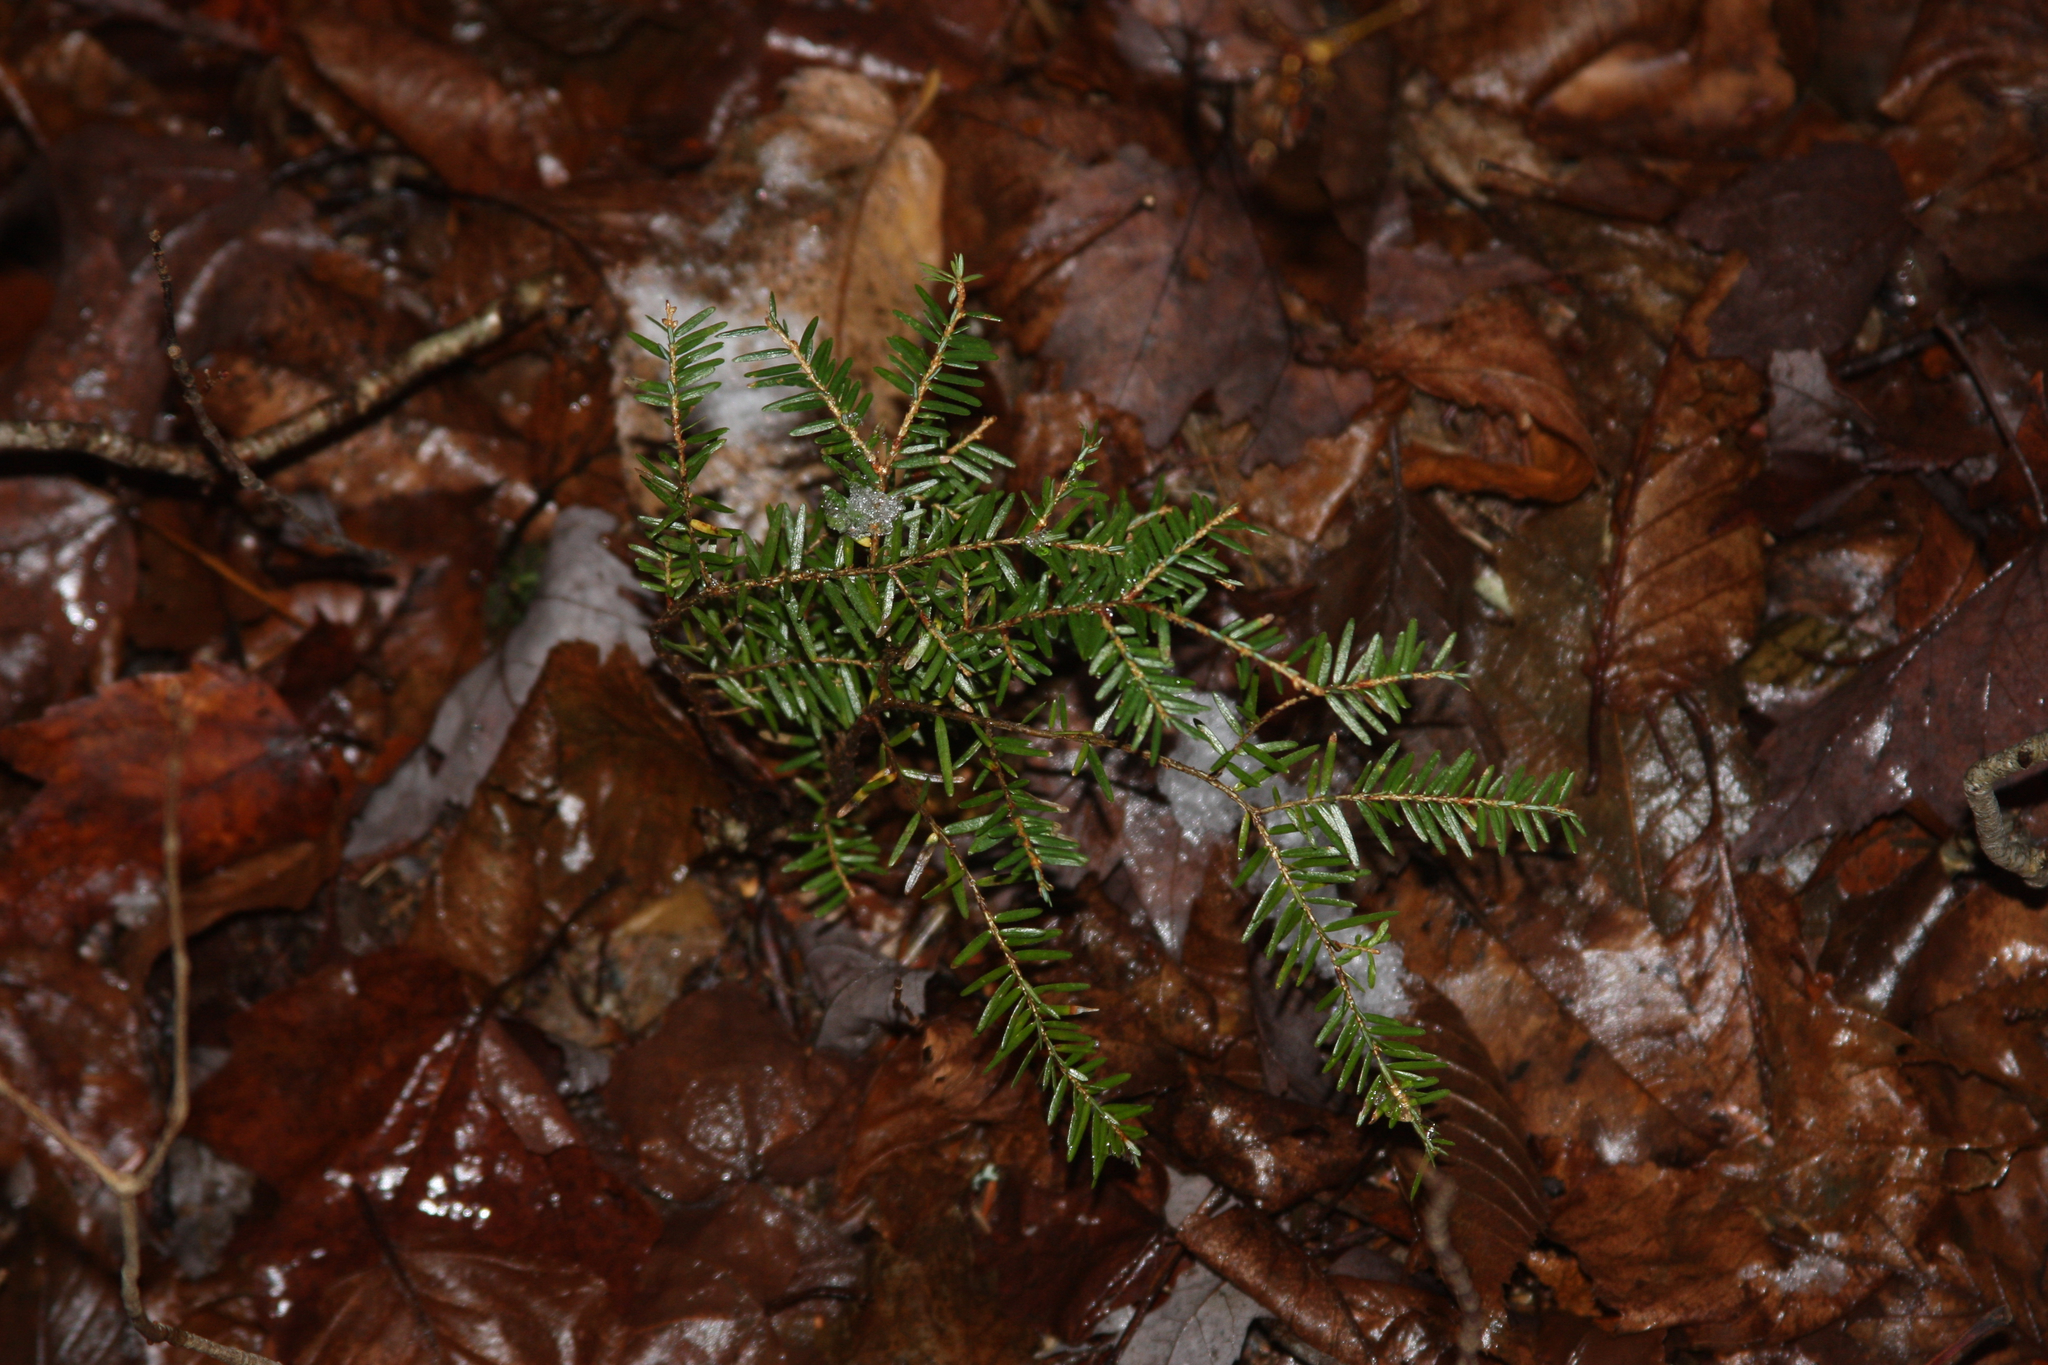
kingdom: Plantae
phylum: Tracheophyta
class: Pinopsida
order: Pinales
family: Pinaceae
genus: Tsuga
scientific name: Tsuga canadensis
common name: Eastern hemlock
